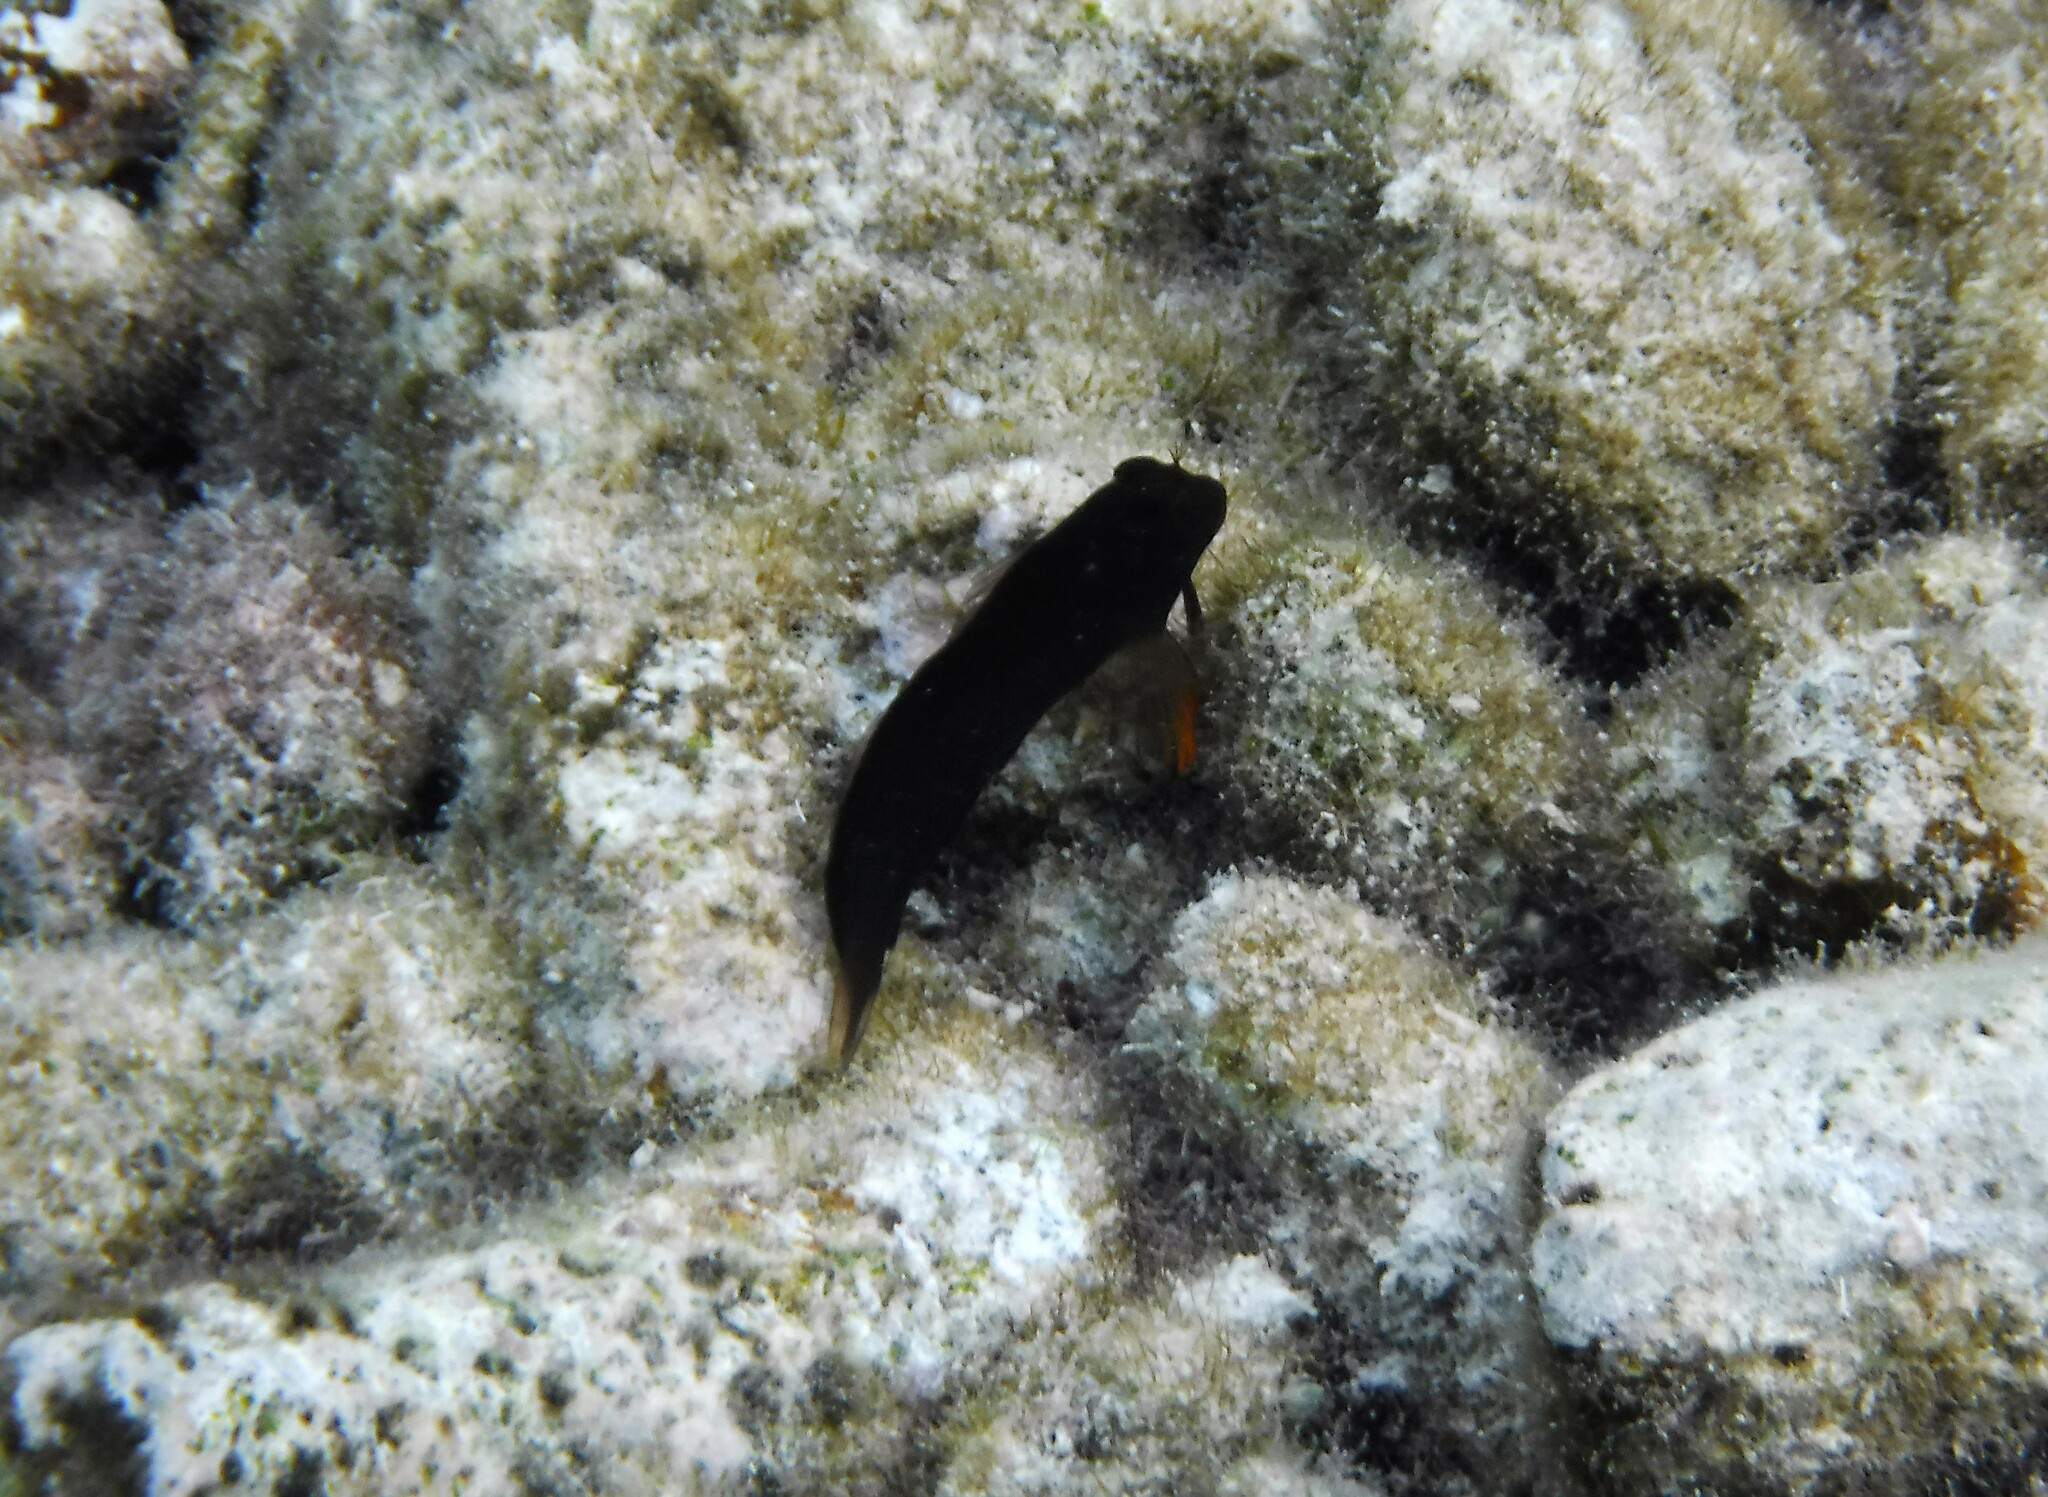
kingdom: Animalia
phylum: Chordata
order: Perciformes
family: Blenniidae
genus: Ophioblennius
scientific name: Ophioblennius macclurei
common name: Redlip blenny
